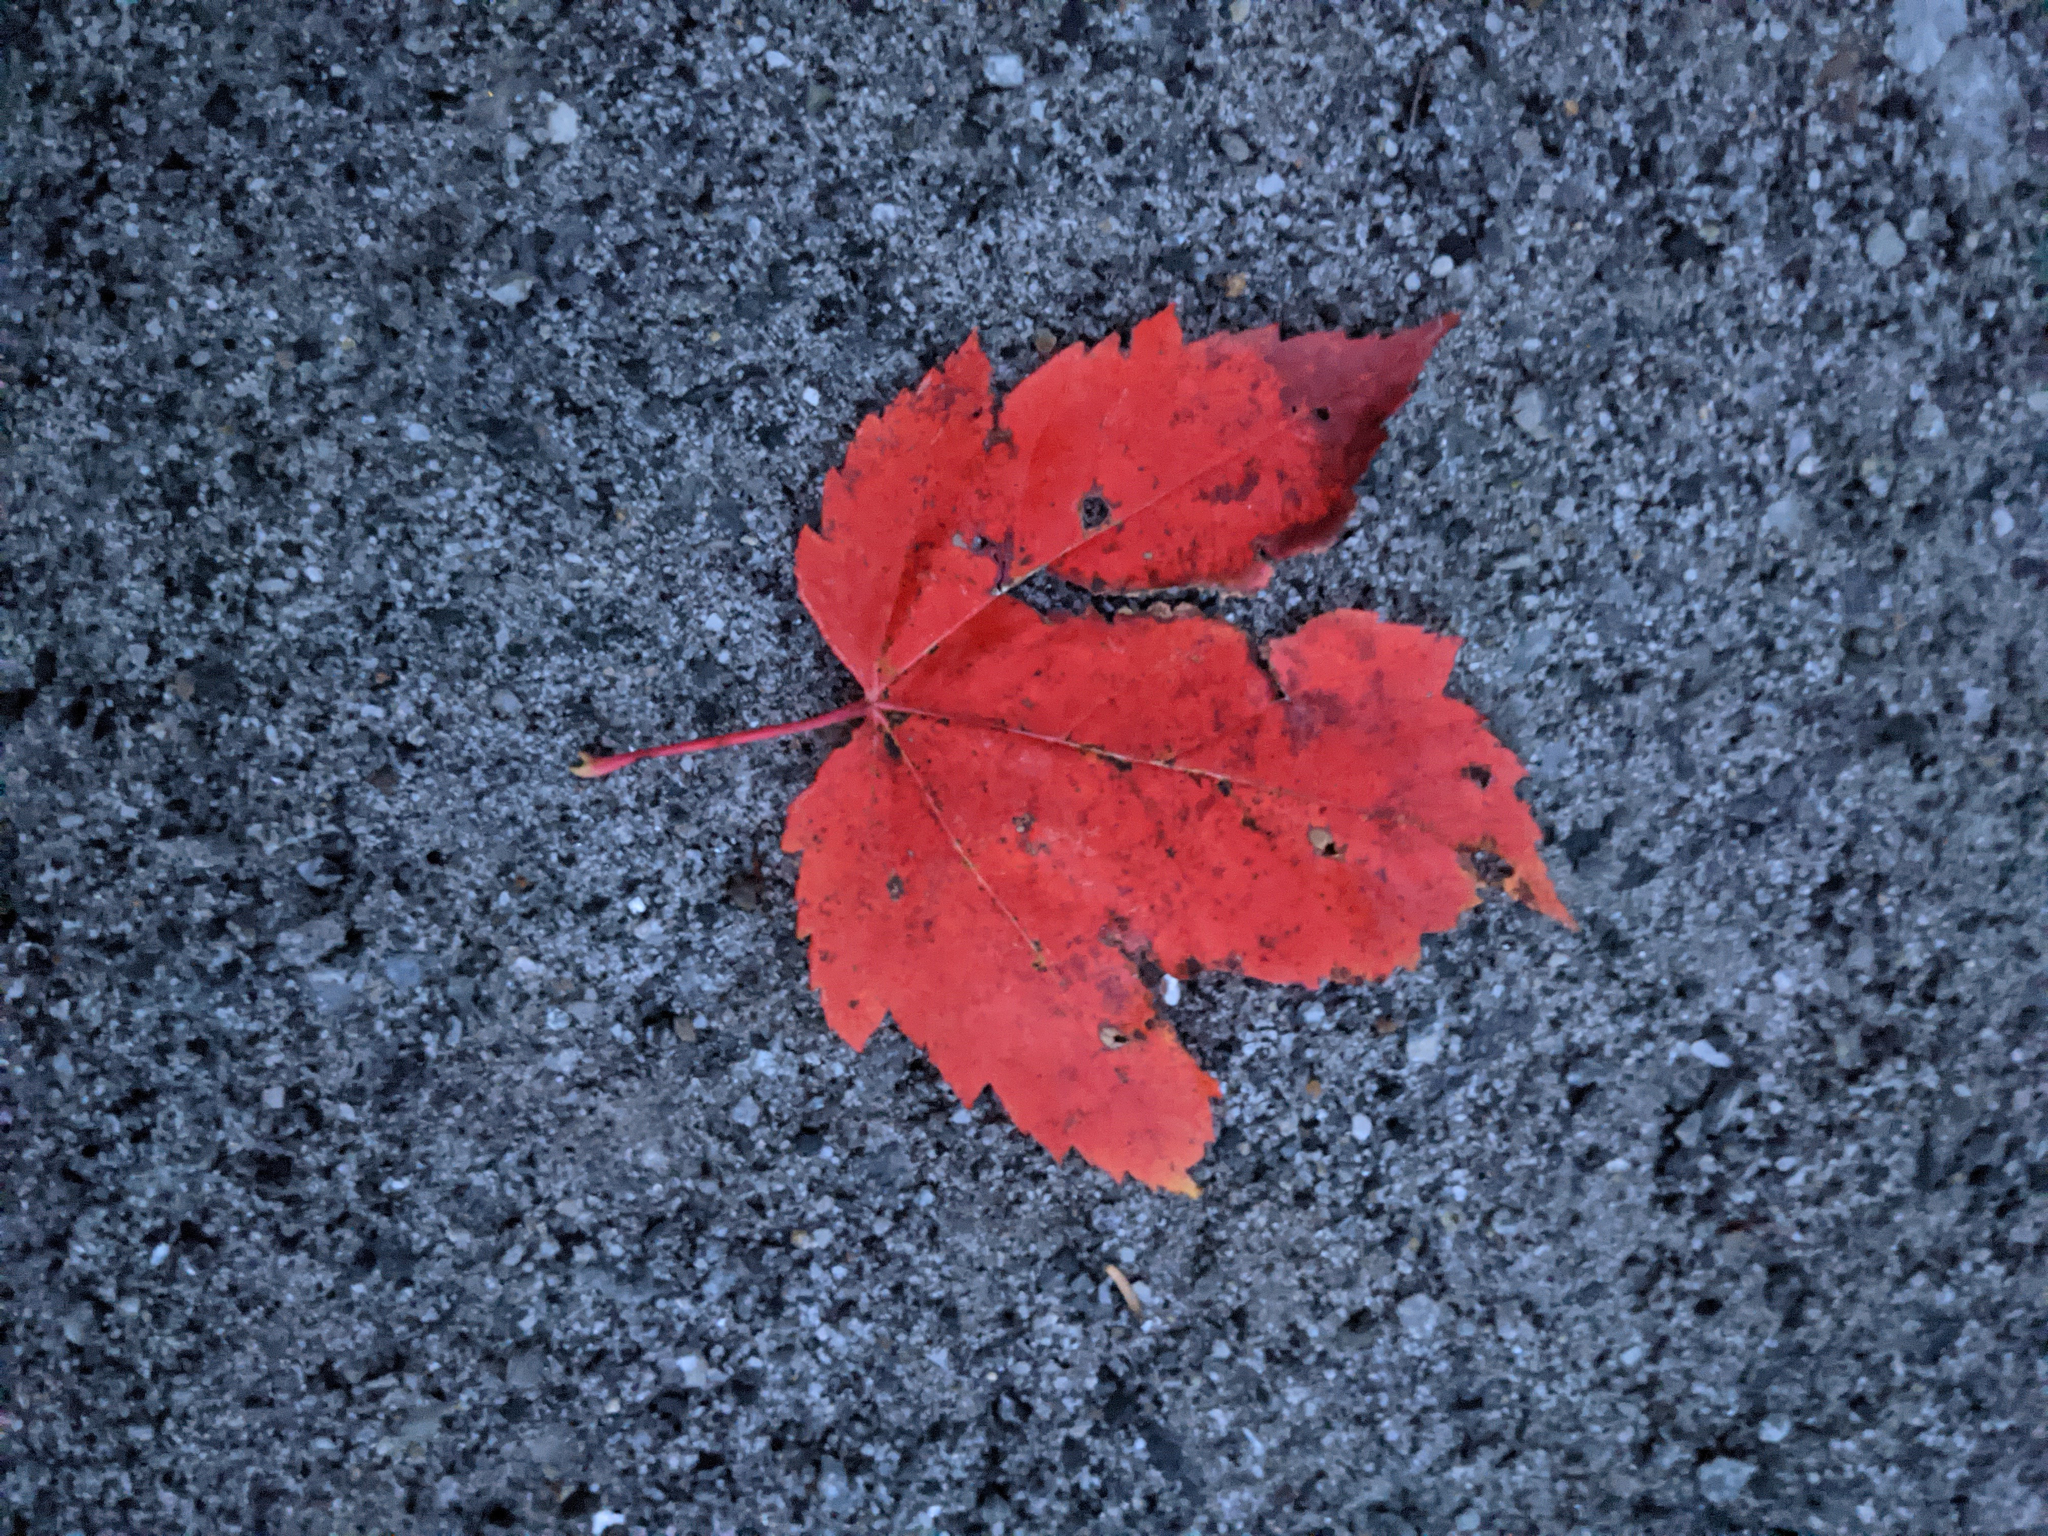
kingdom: Plantae
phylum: Tracheophyta
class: Magnoliopsida
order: Sapindales
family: Sapindaceae
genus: Acer
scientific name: Acer rubrum
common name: Red maple
